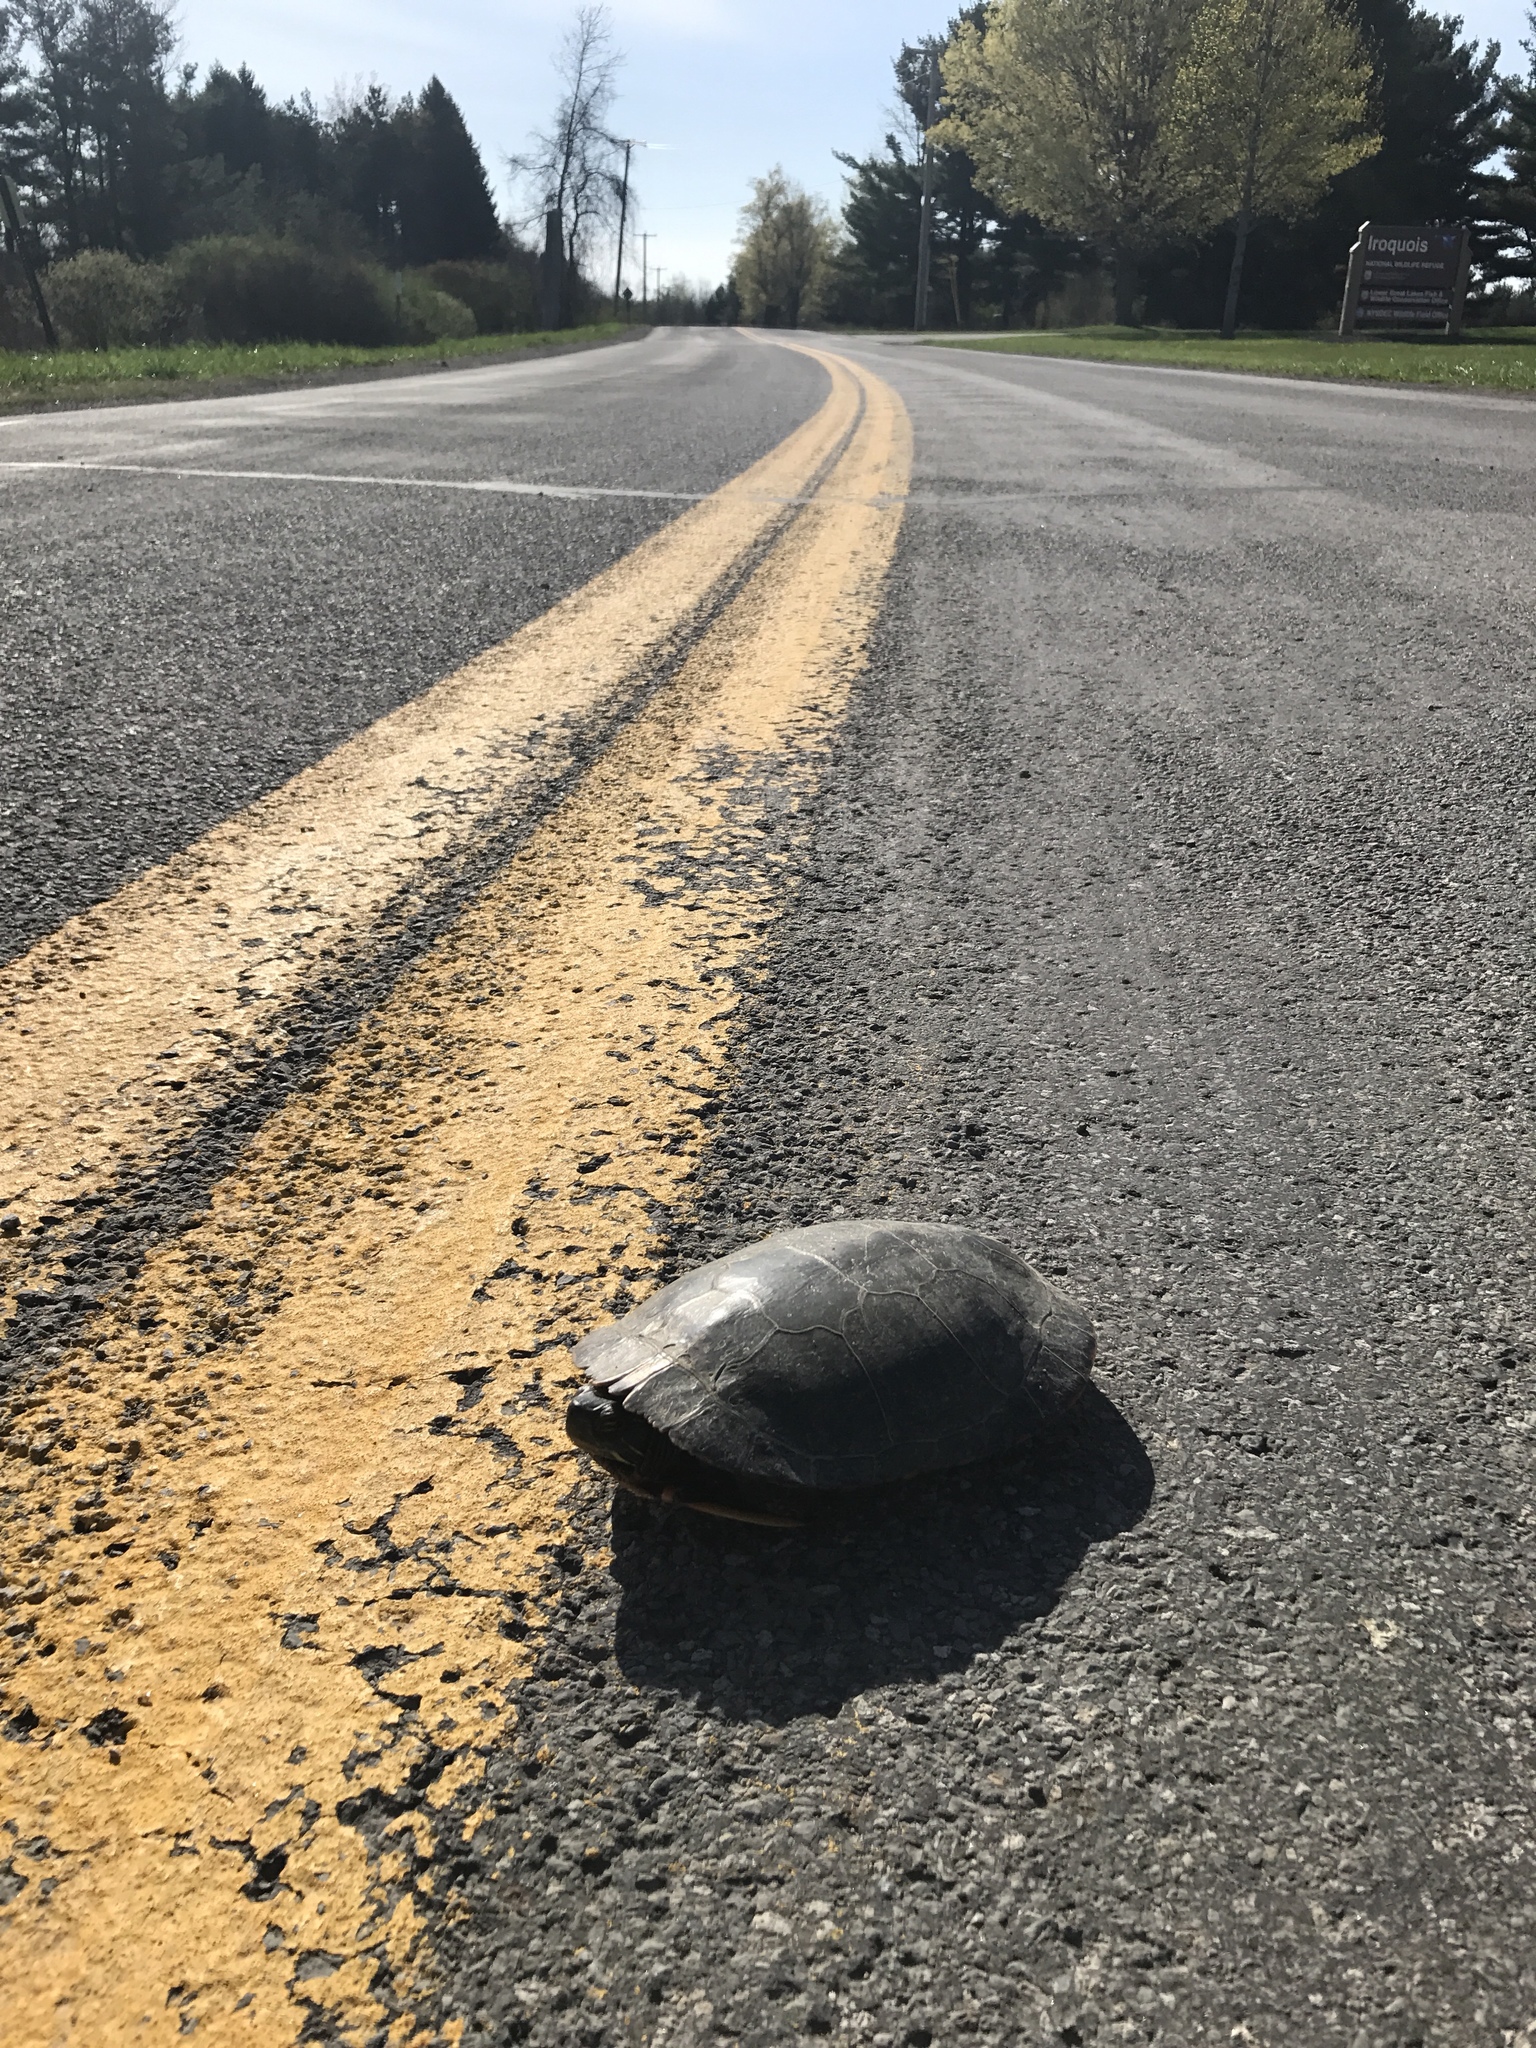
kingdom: Animalia
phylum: Chordata
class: Testudines
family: Emydidae
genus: Chrysemys
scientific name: Chrysemys picta
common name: Painted turtle
